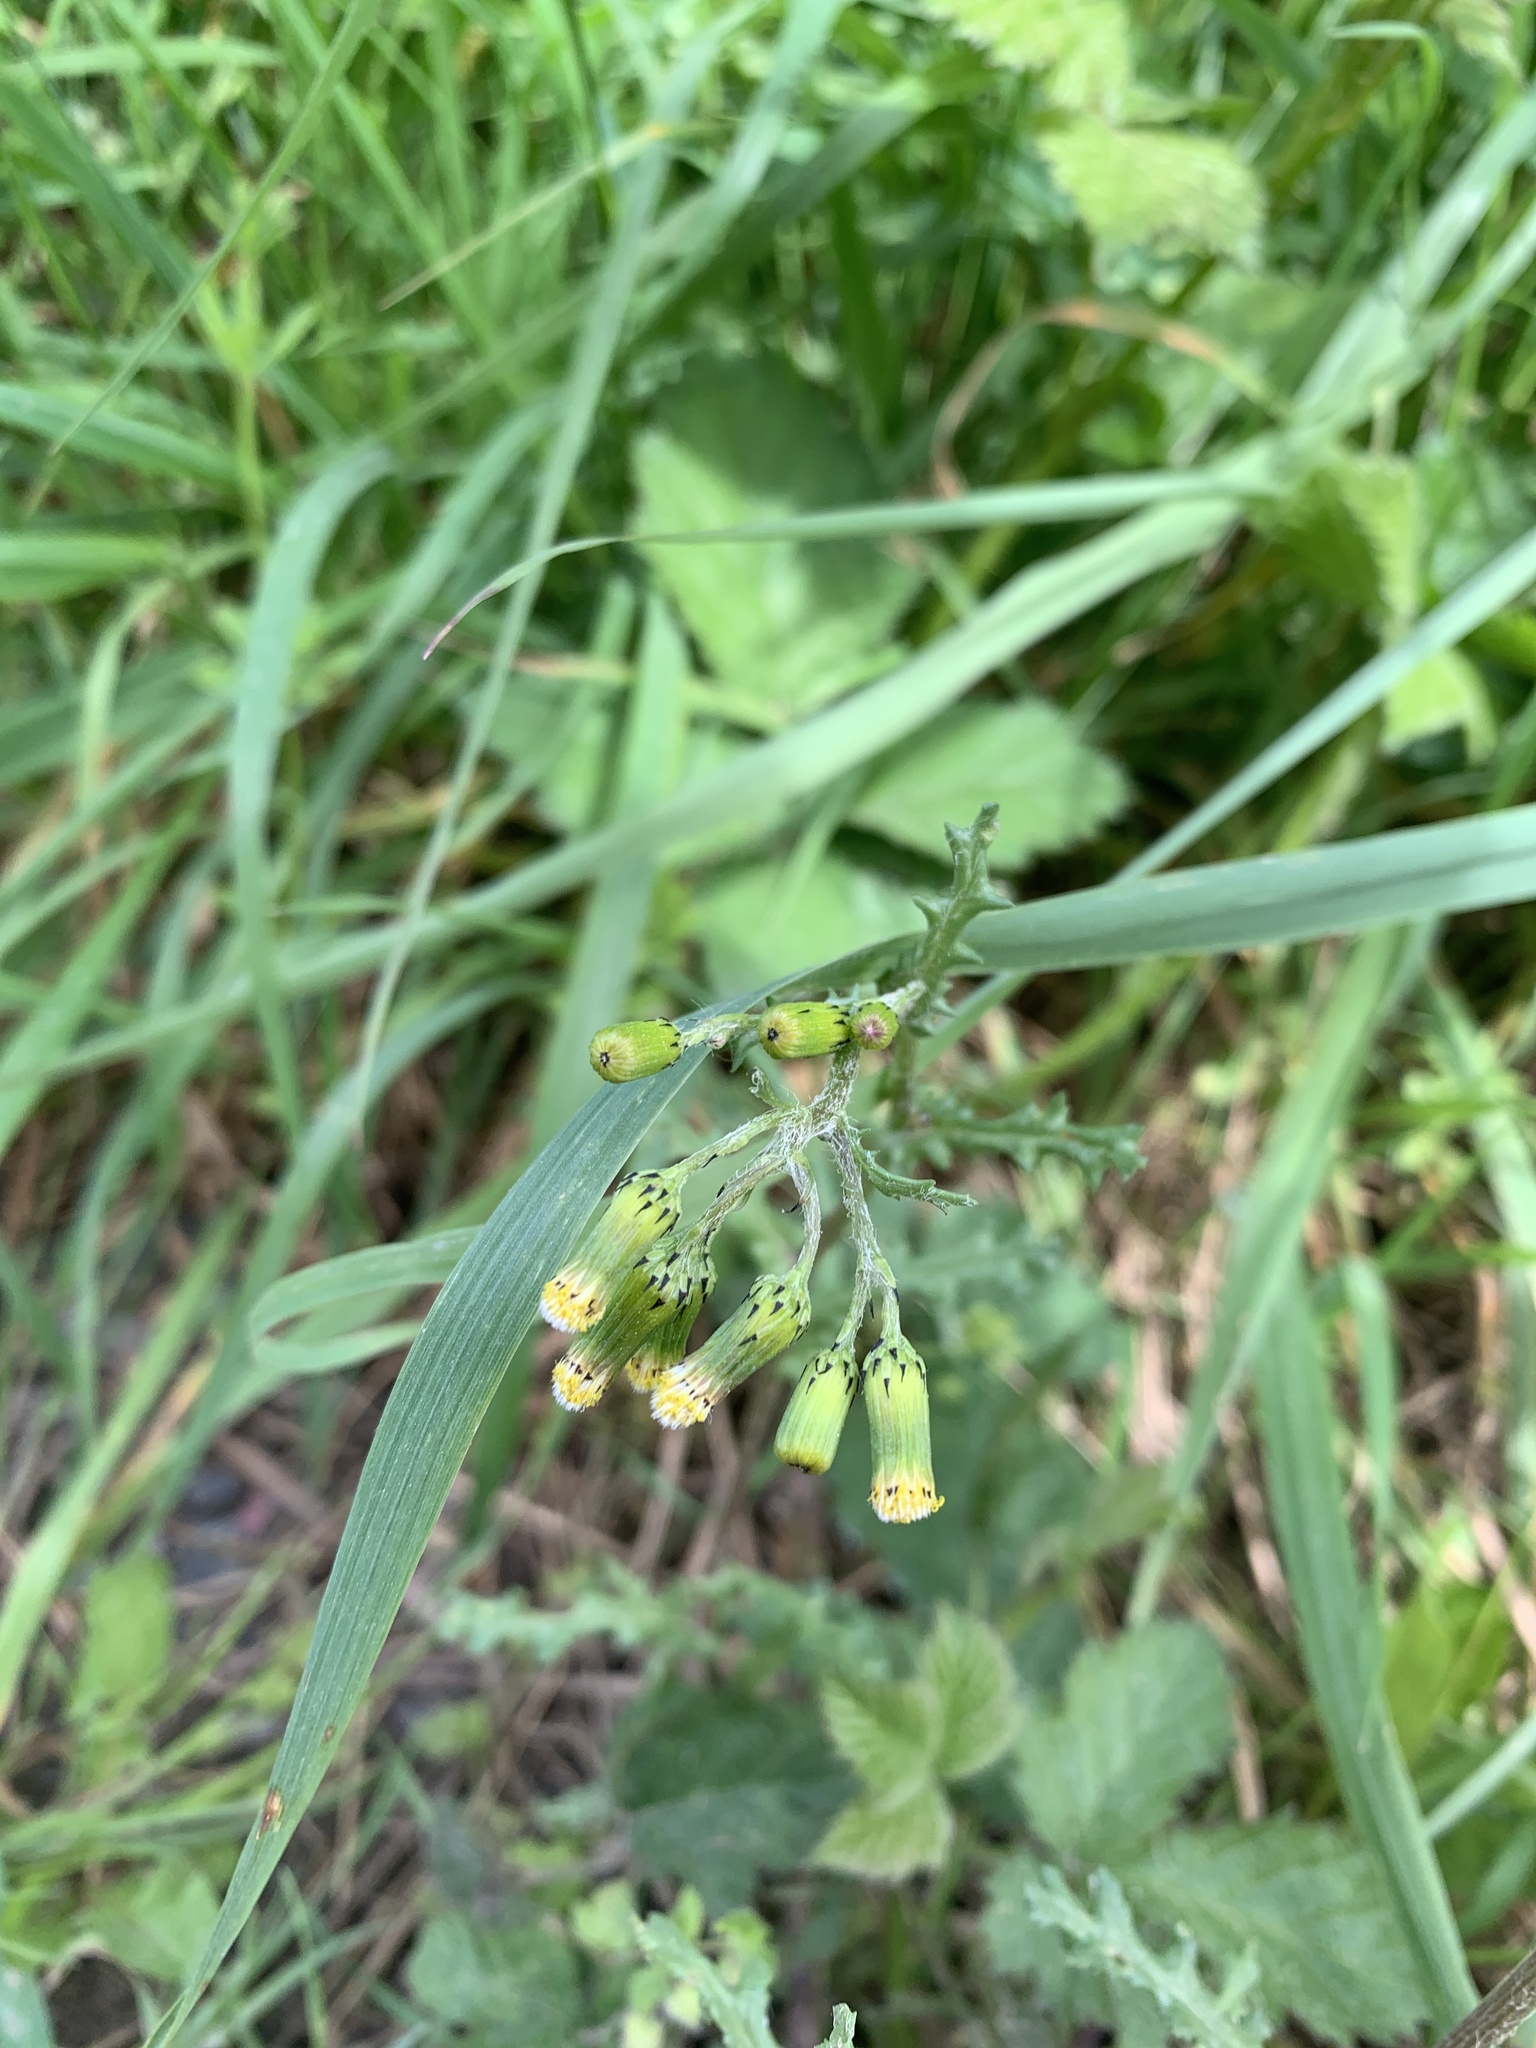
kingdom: Plantae
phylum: Tracheophyta
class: Magnoliopsida
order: Asterales
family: Asteraceae
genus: Senecio
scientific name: Senecio vulgaris
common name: Old-man-in-the-spring
